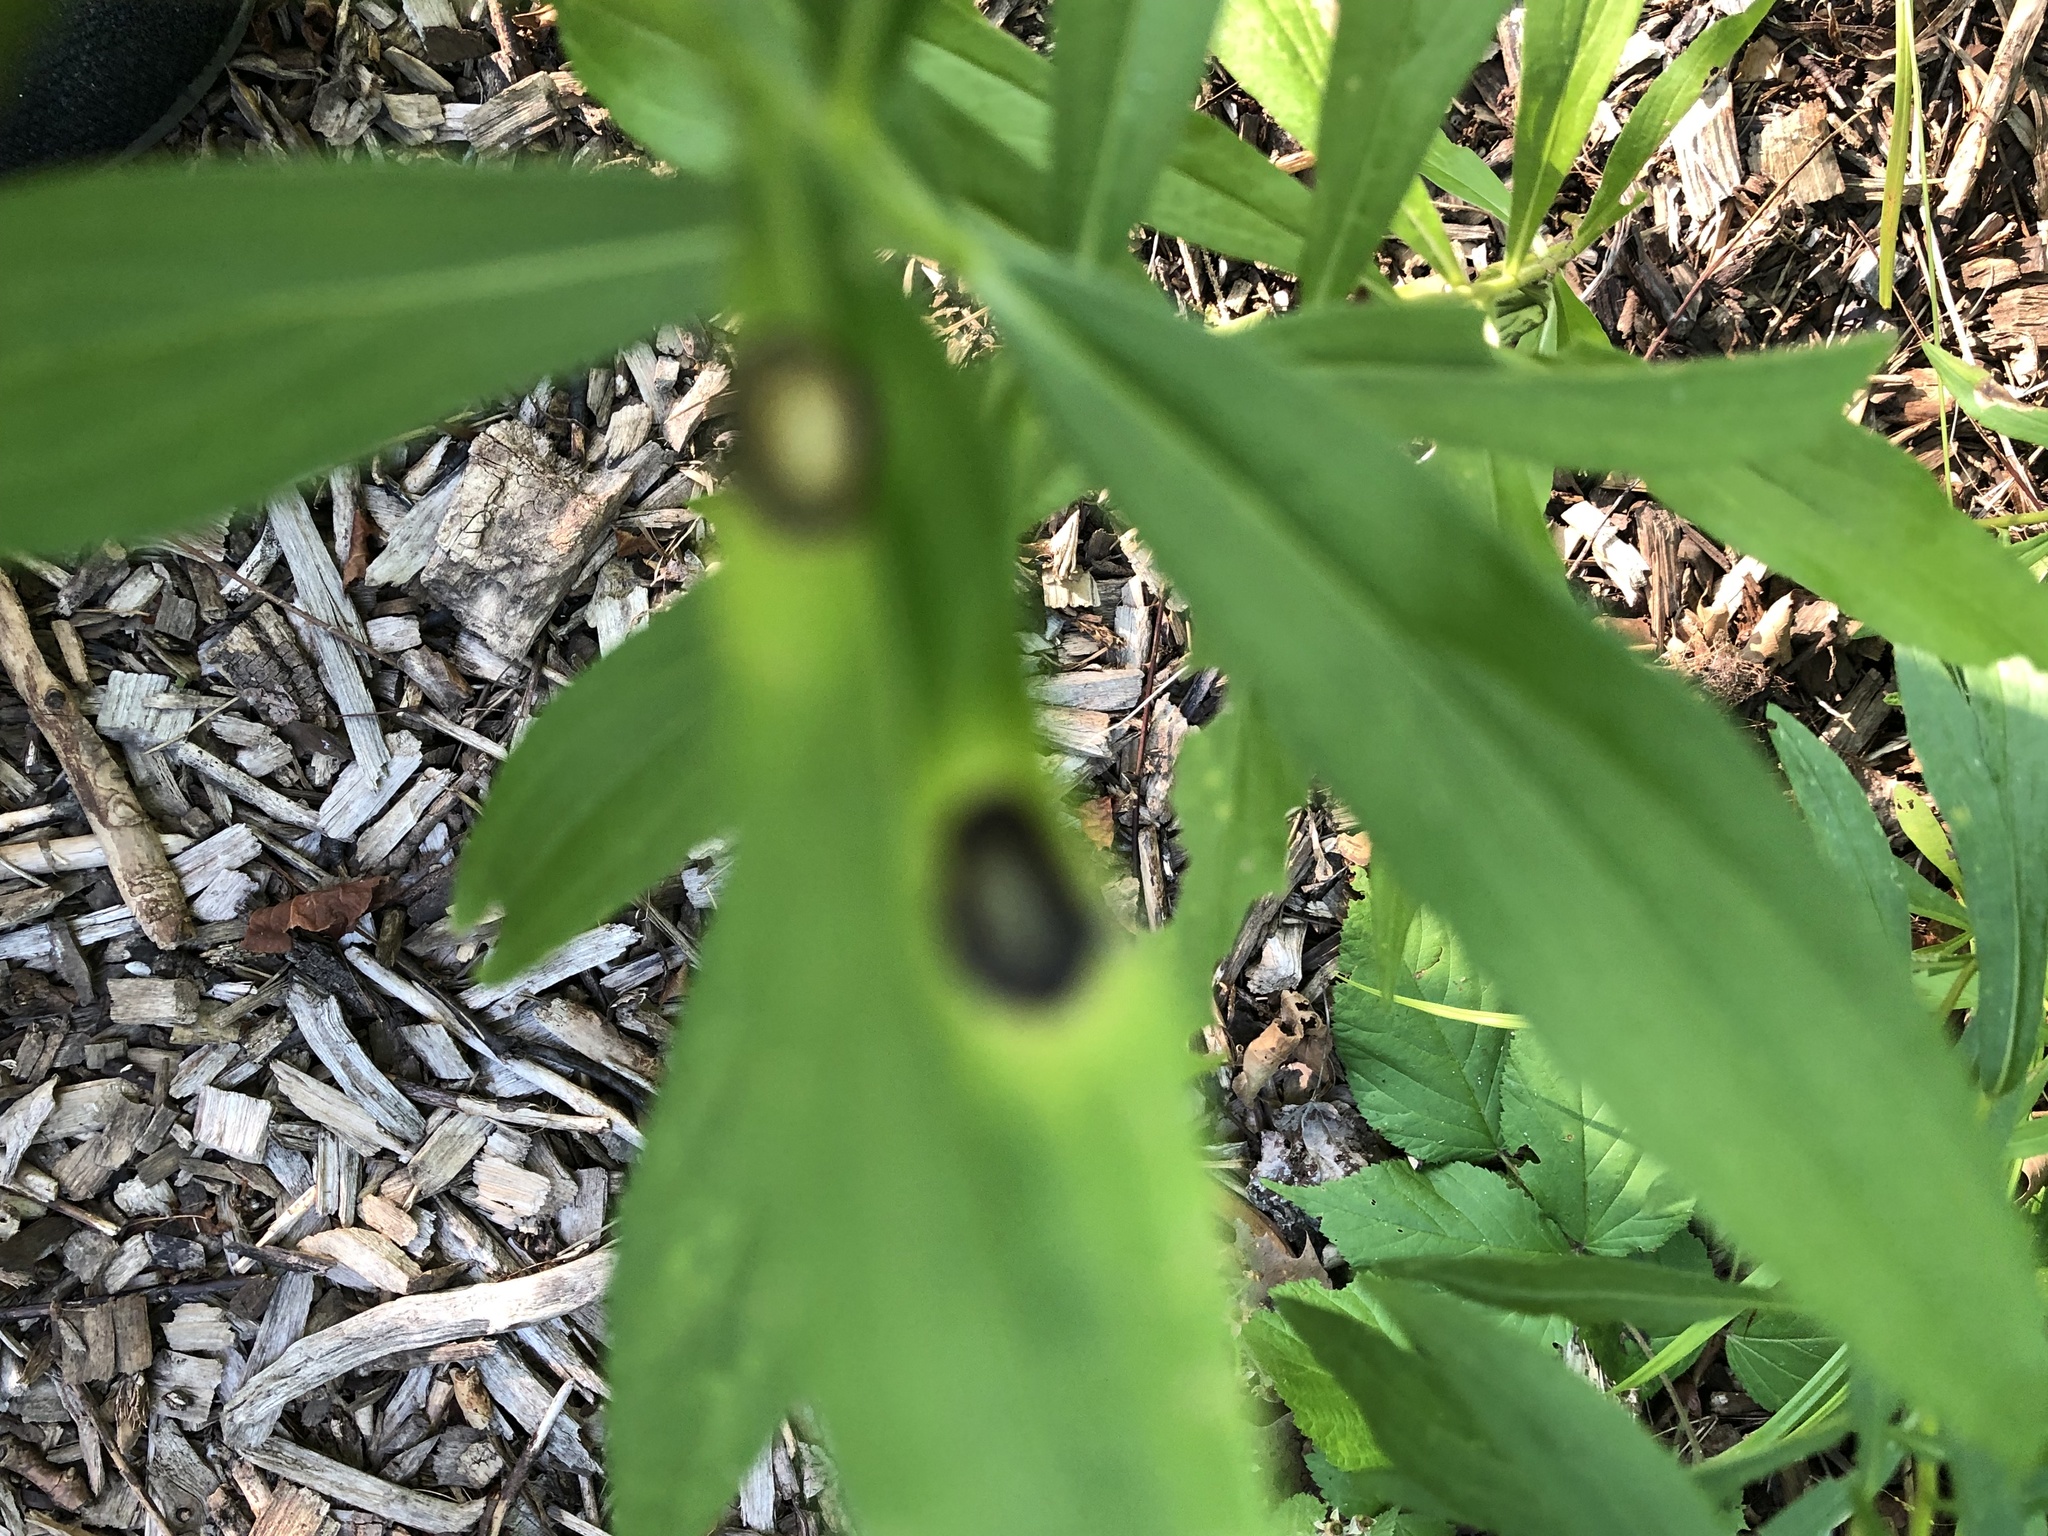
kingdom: Animalia
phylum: Arthropoda
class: Insecta
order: Diptera
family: Cecidomyiidae
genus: Asteromyia
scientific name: Asteromyia carbonifera
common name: Carbonifera goldenrod gall midge
